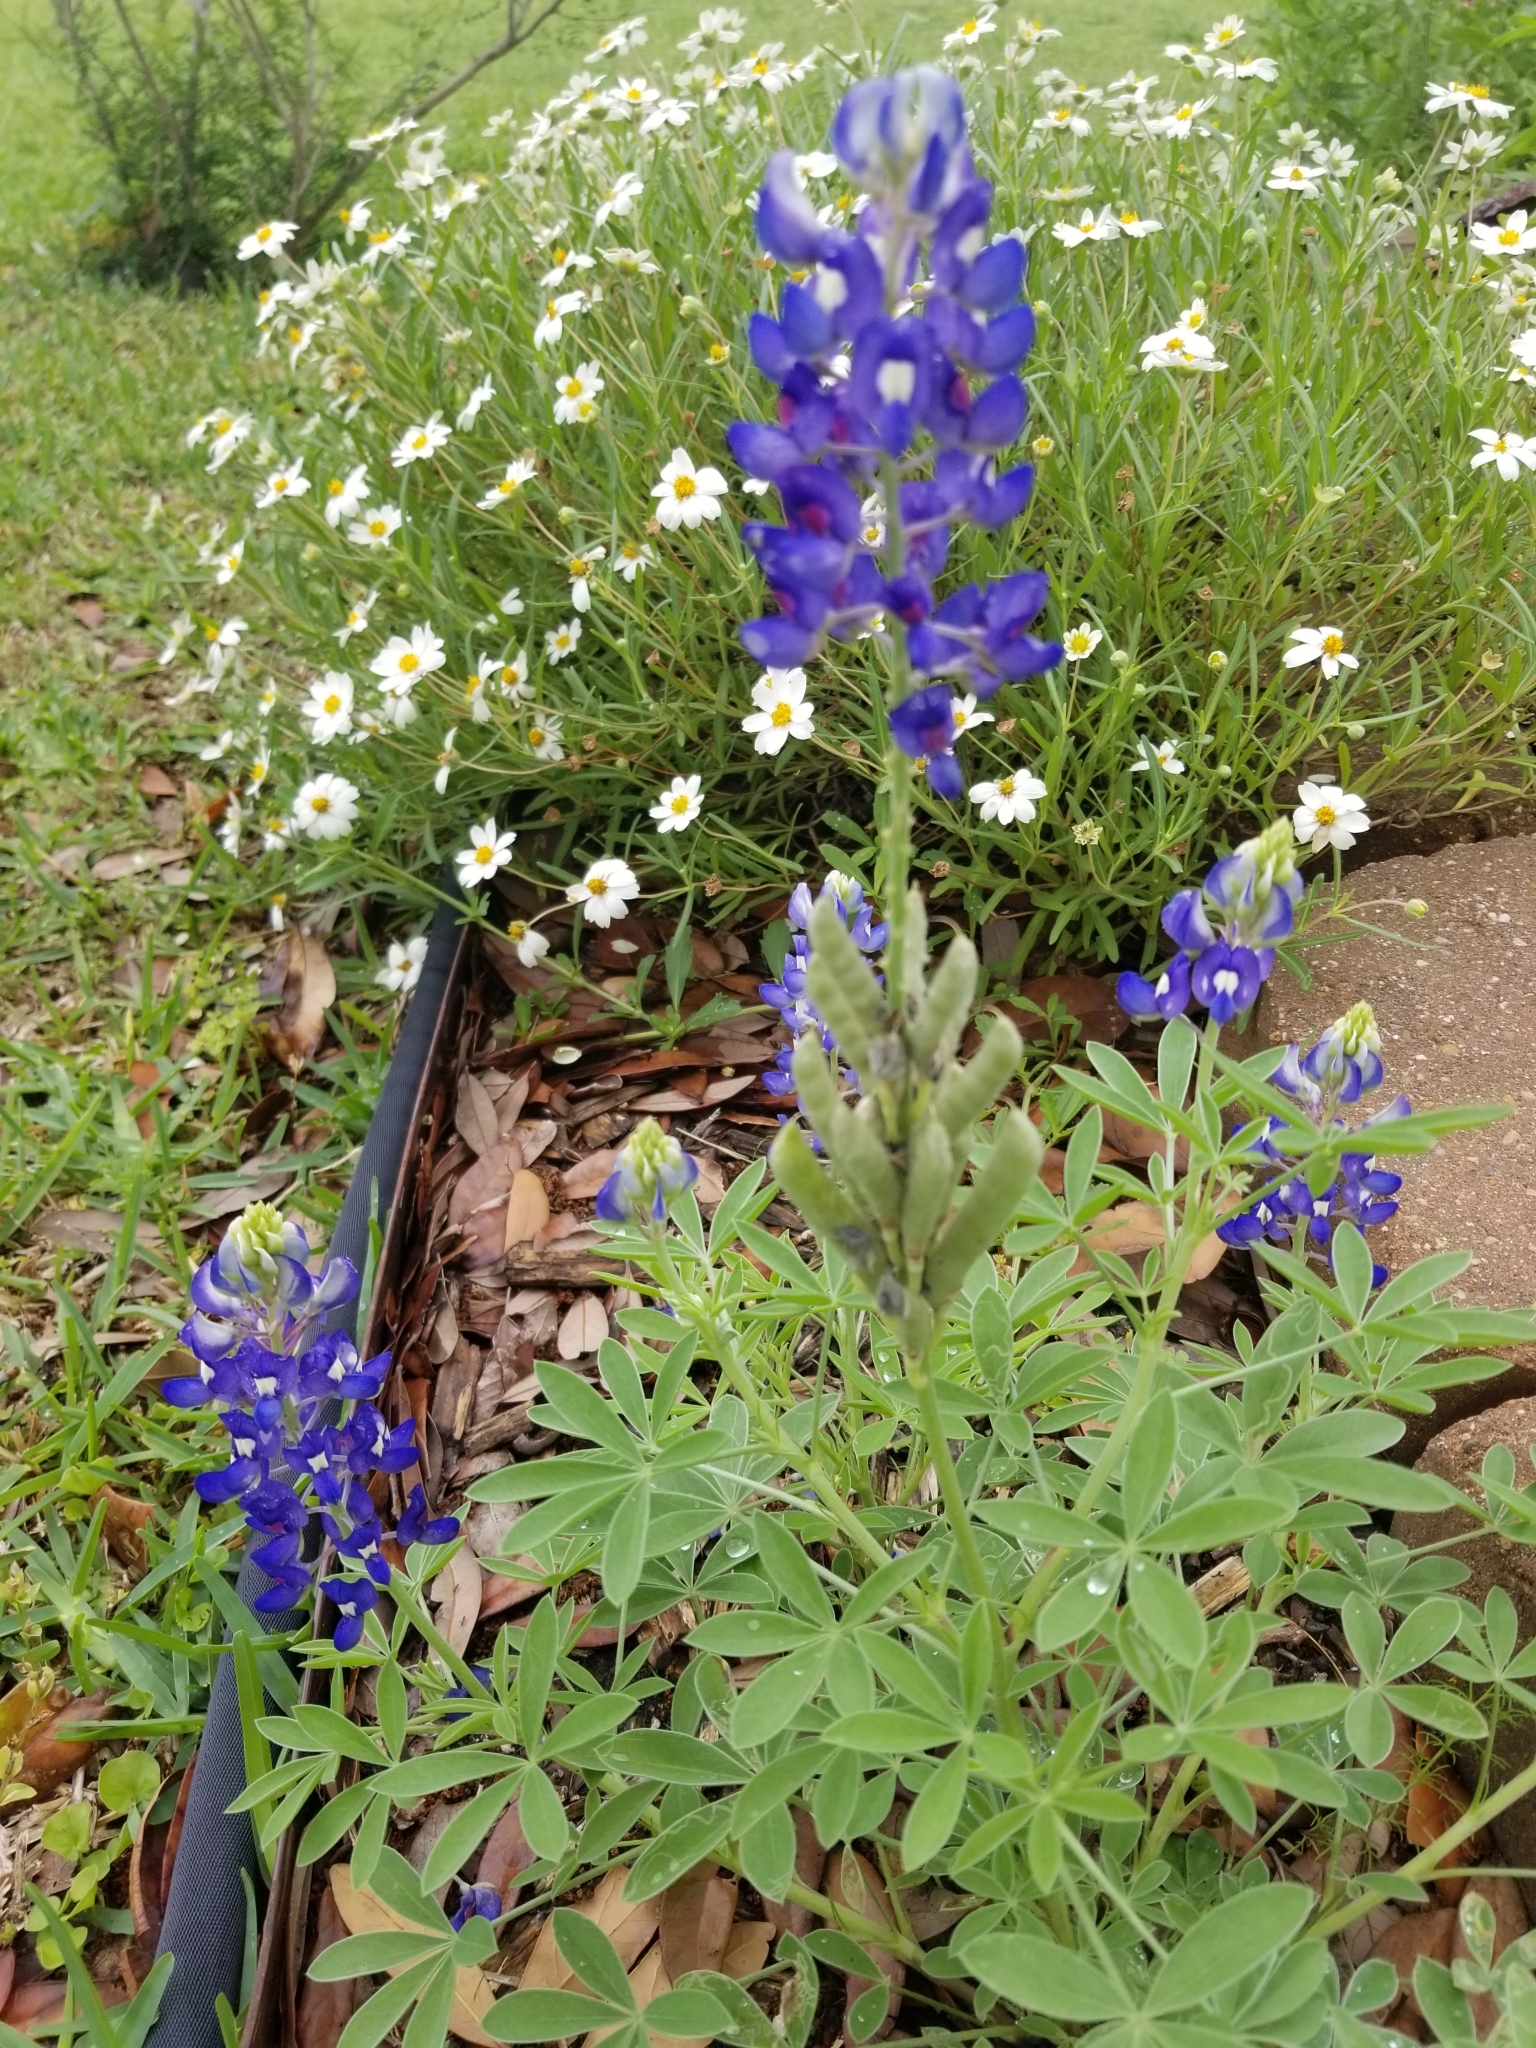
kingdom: Plantae
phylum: Tracheophyta
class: Magnoliopsida
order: Fabales
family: Fabaceae
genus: Lupinus
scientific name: Lupinus texensis
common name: Texas bluebonnet
